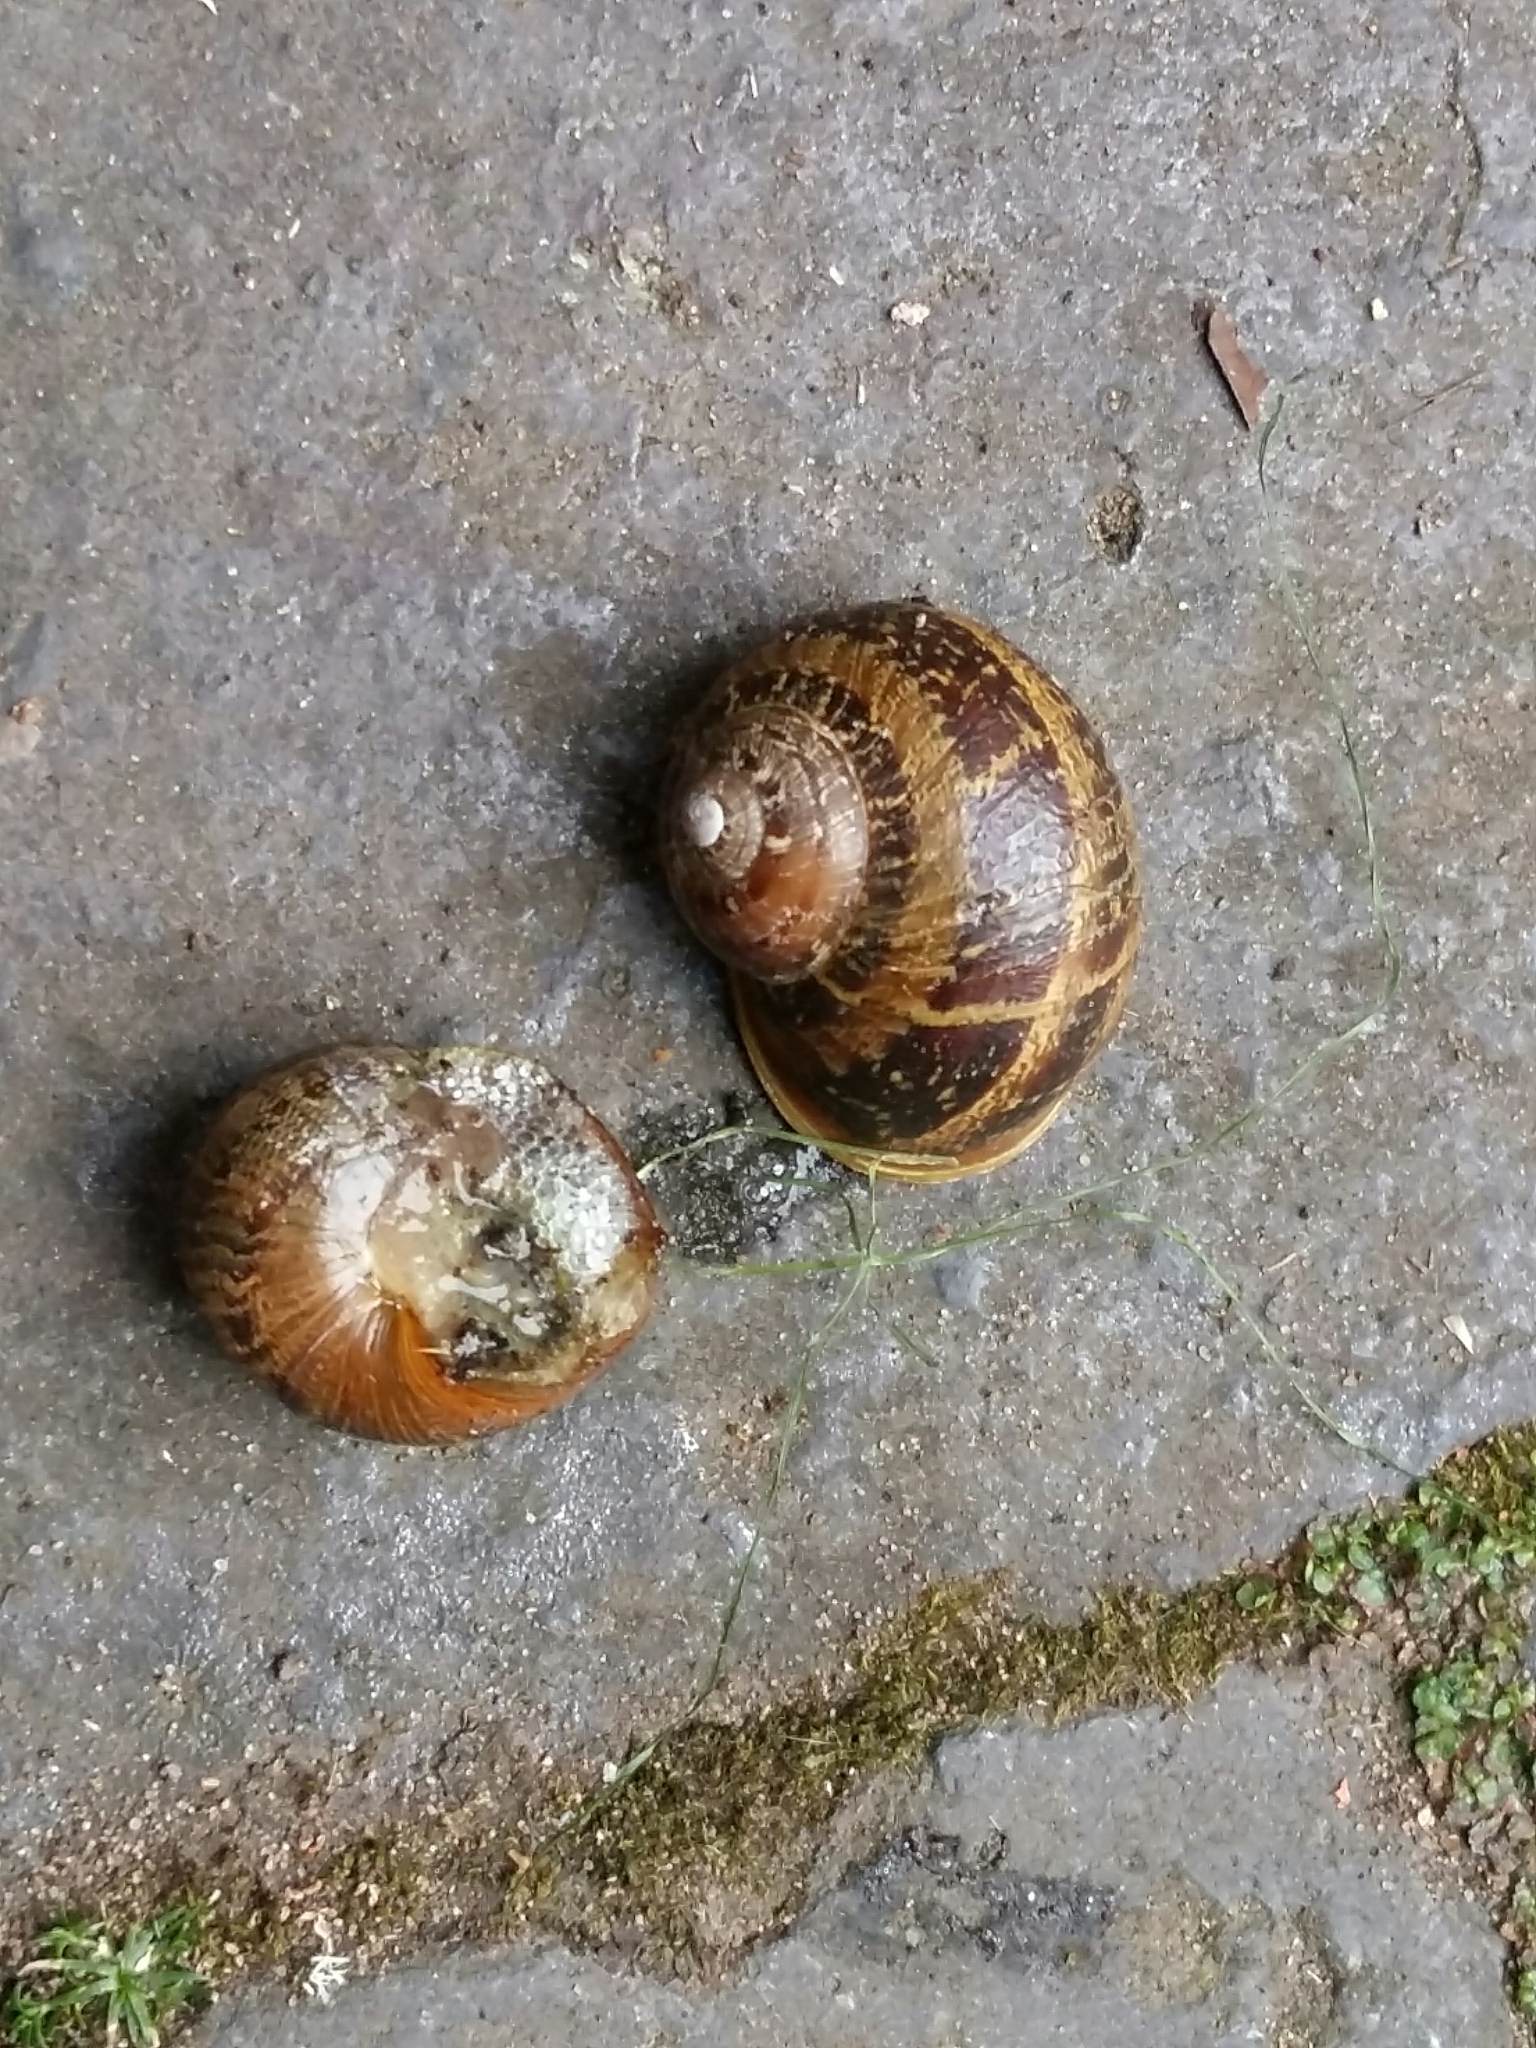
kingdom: Animalia
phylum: Mollusca
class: Gastropoda
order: Stylommatophora
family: Helicidae
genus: Cornu
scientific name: Cornu aspersum
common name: Brown garden snail
